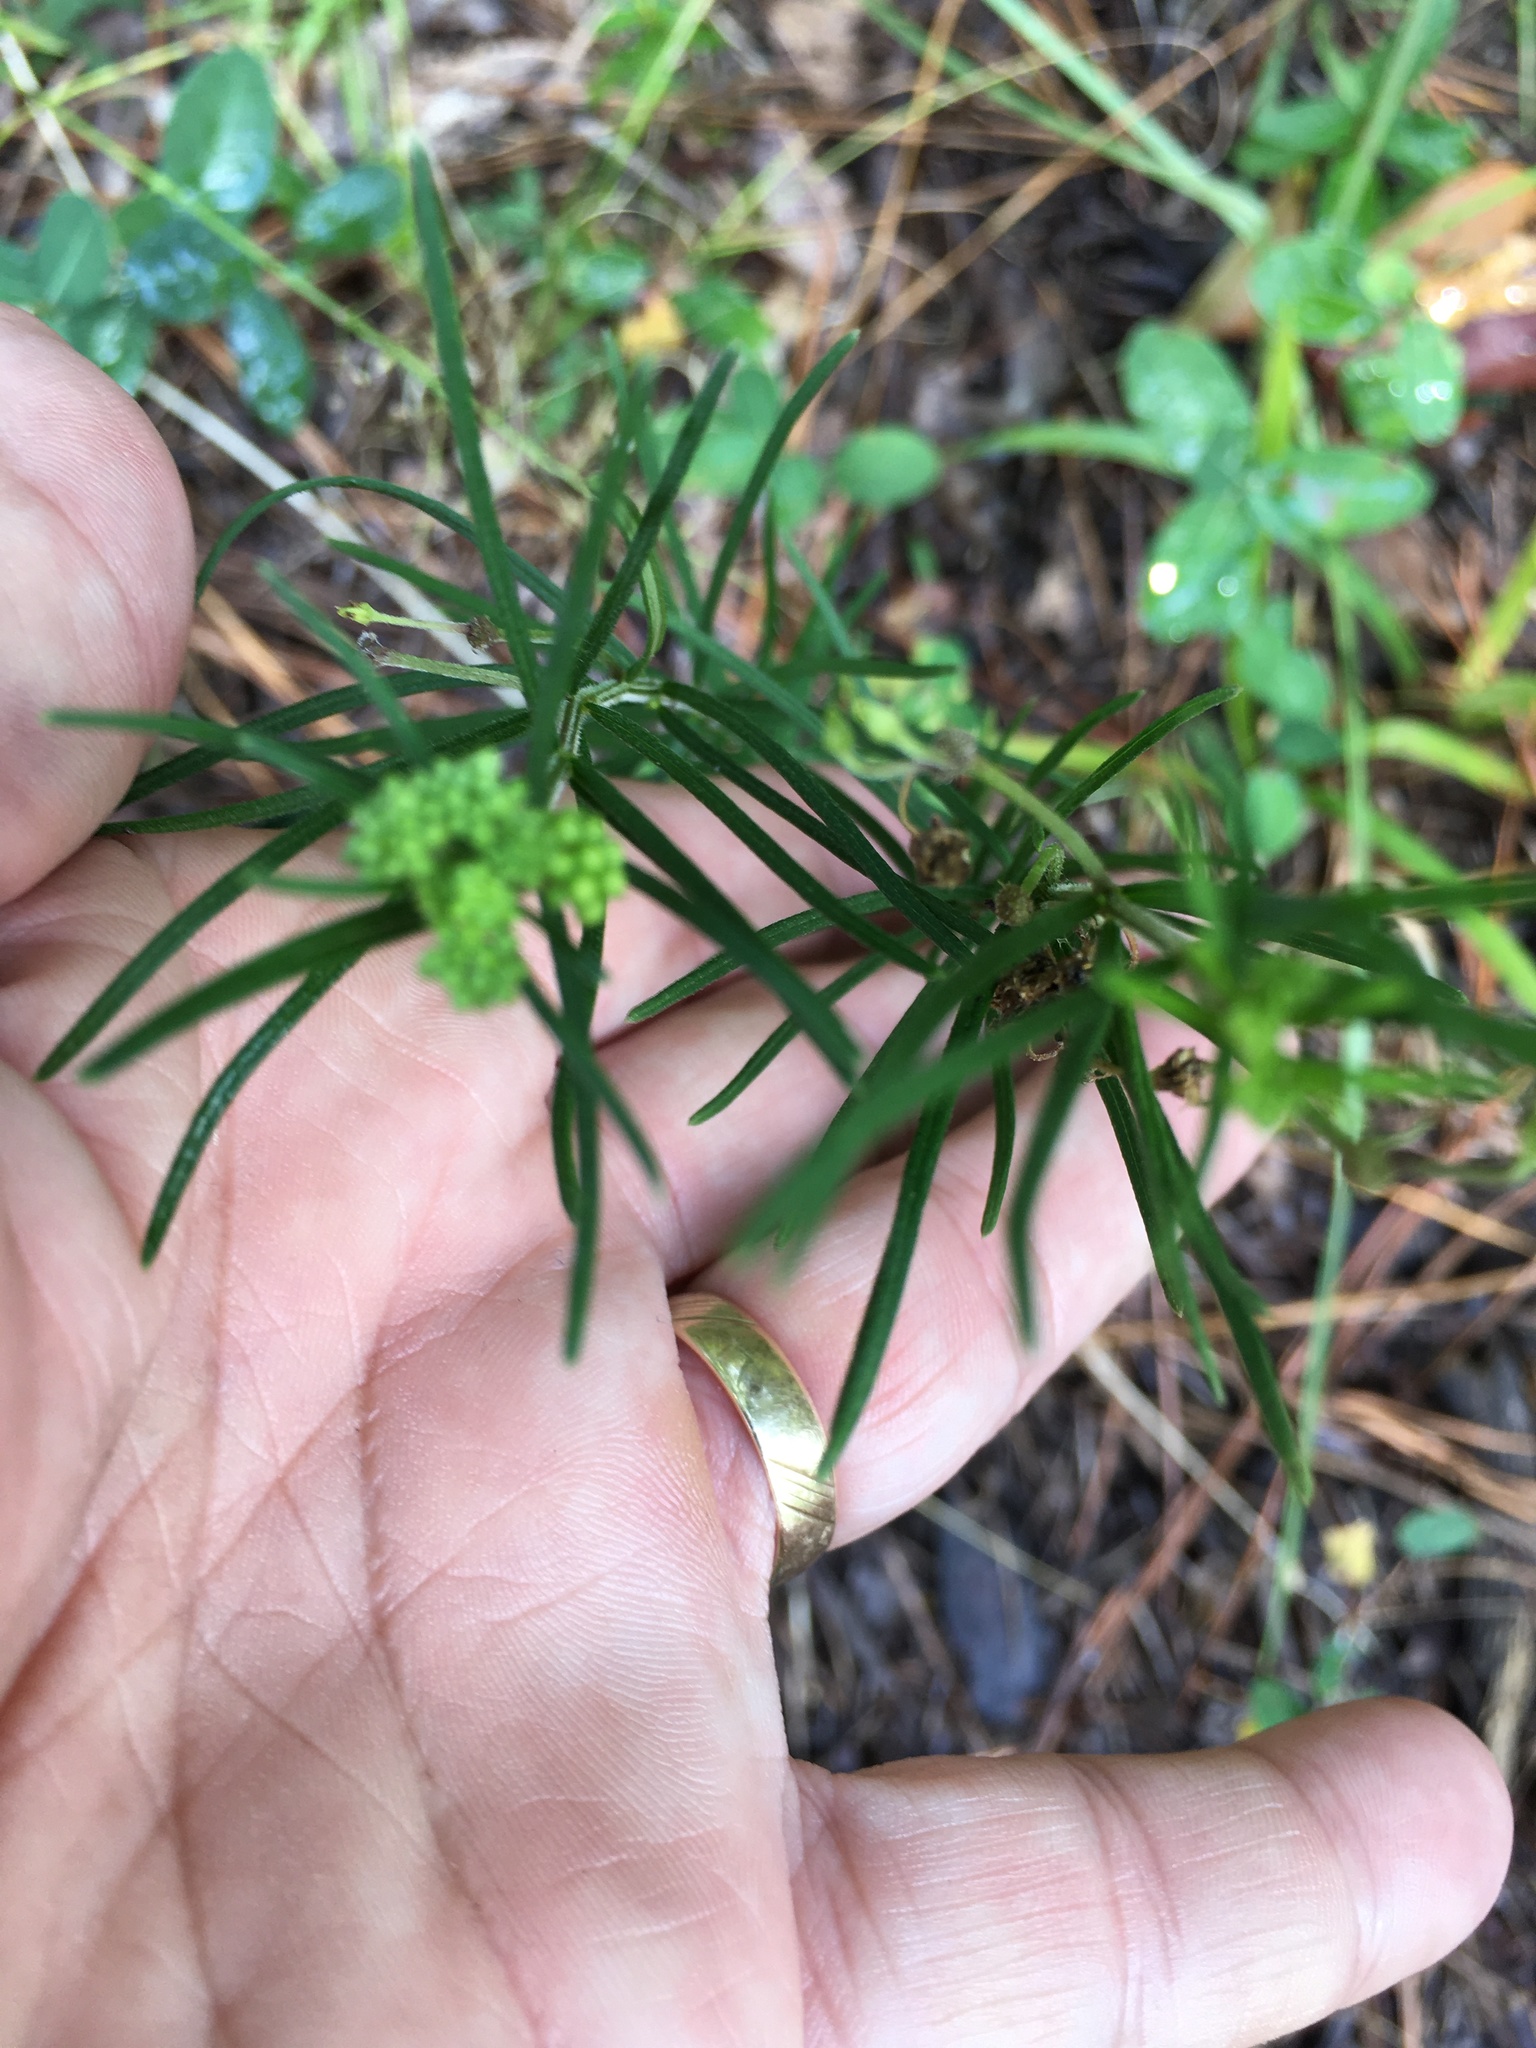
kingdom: Plantae
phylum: Tracheophyta
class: Magnoliopsida
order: Gentianales
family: Apocynaceae
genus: Asclepias
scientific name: Asclepias verticillata
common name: Eastern whorled milkweed
